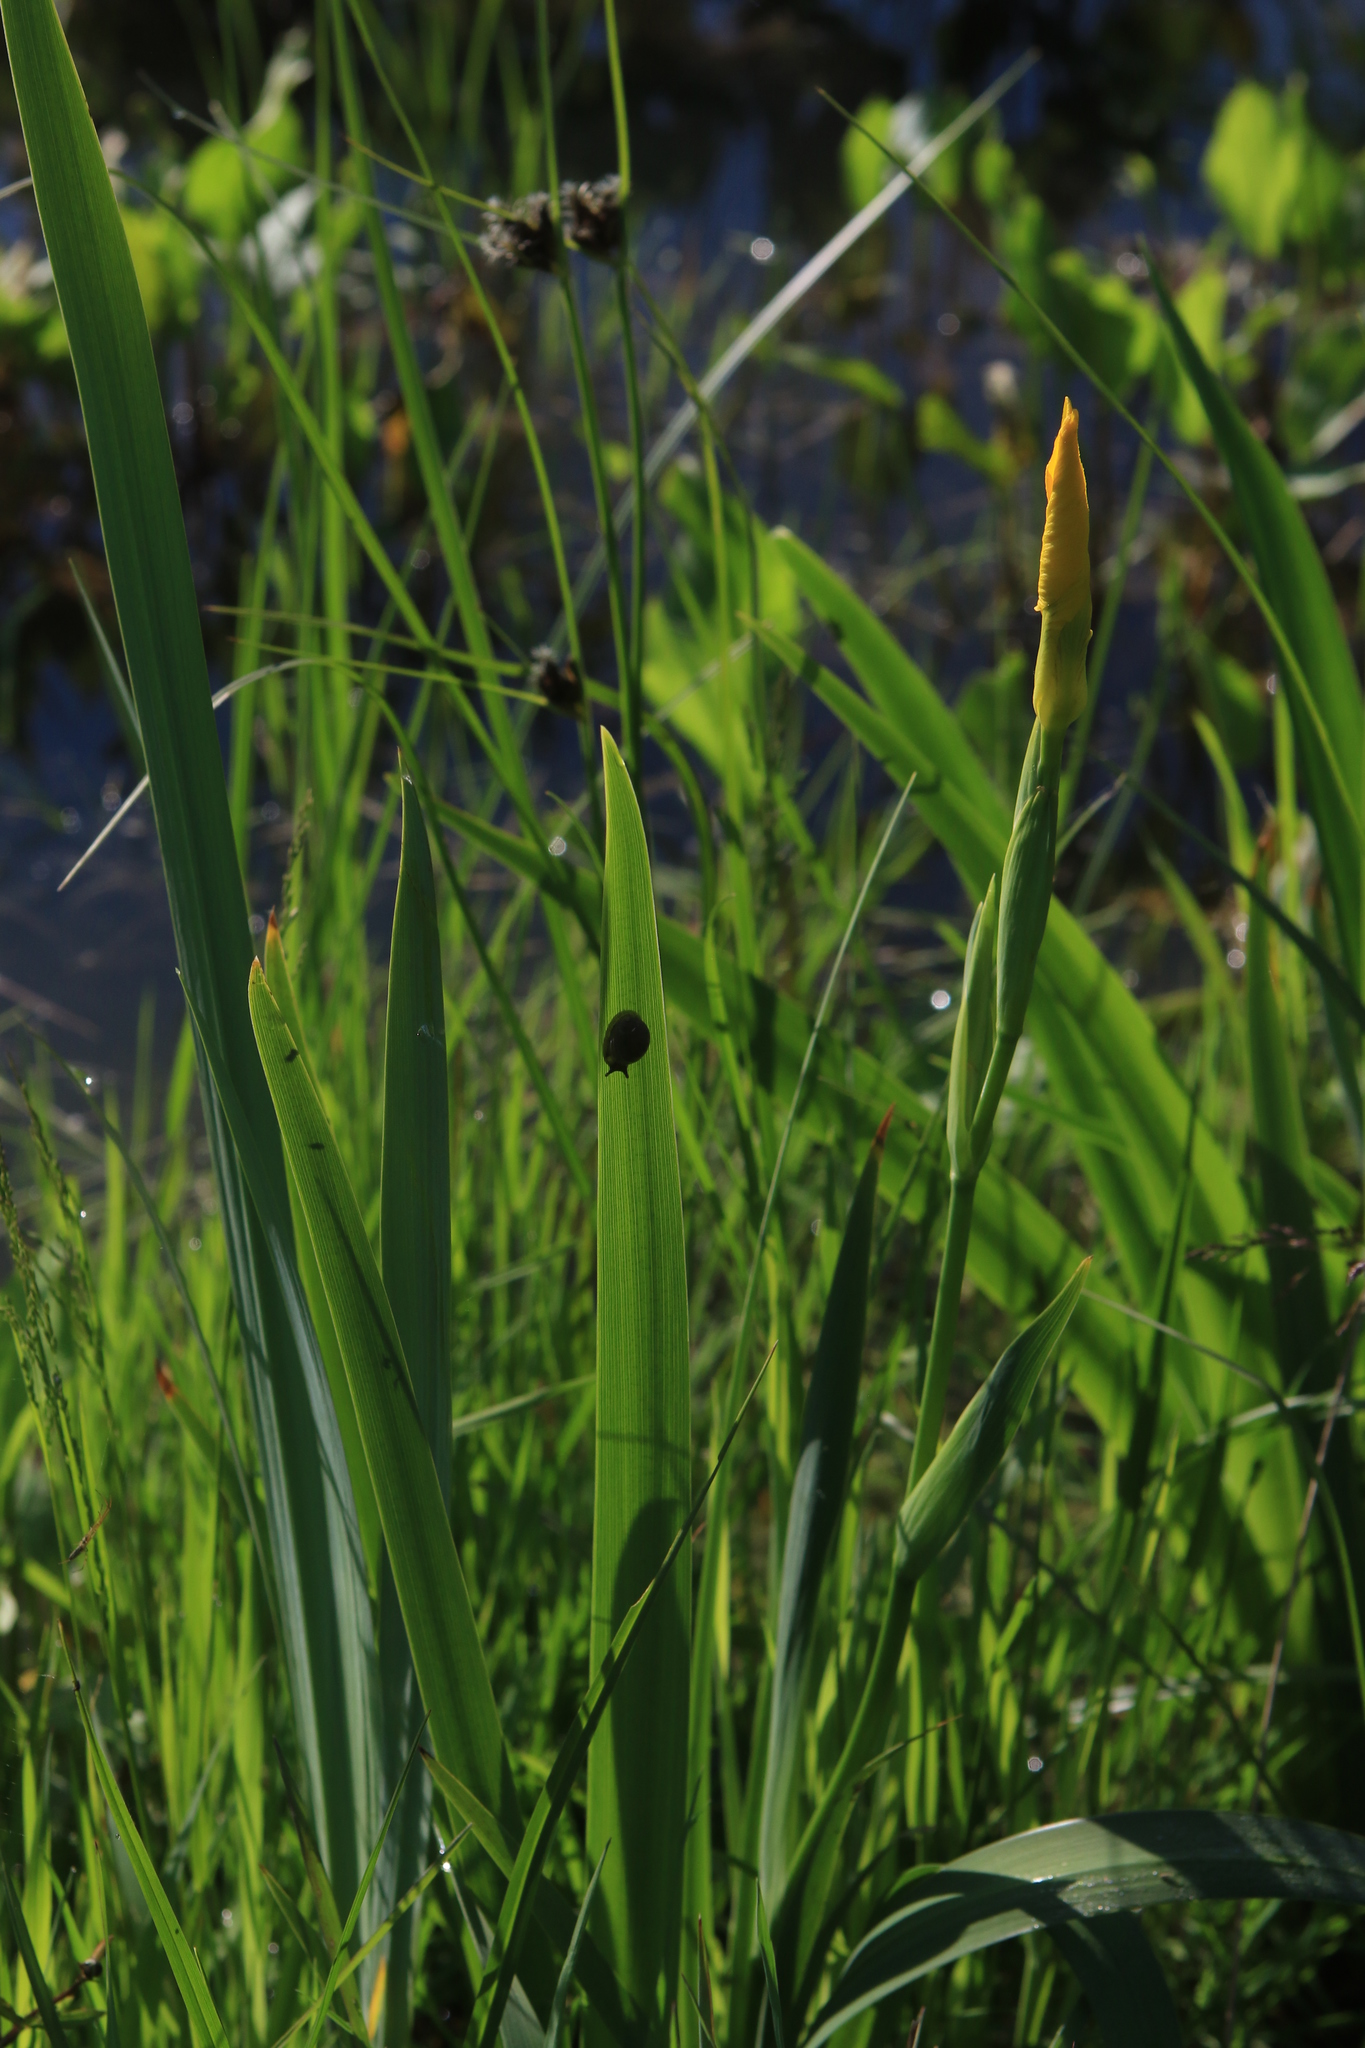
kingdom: Plantae
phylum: Tracheophyta
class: Liliopsida
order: Asparagales
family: Iridaceae
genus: Iris
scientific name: Iris pseudacorus
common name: Yellow flag
